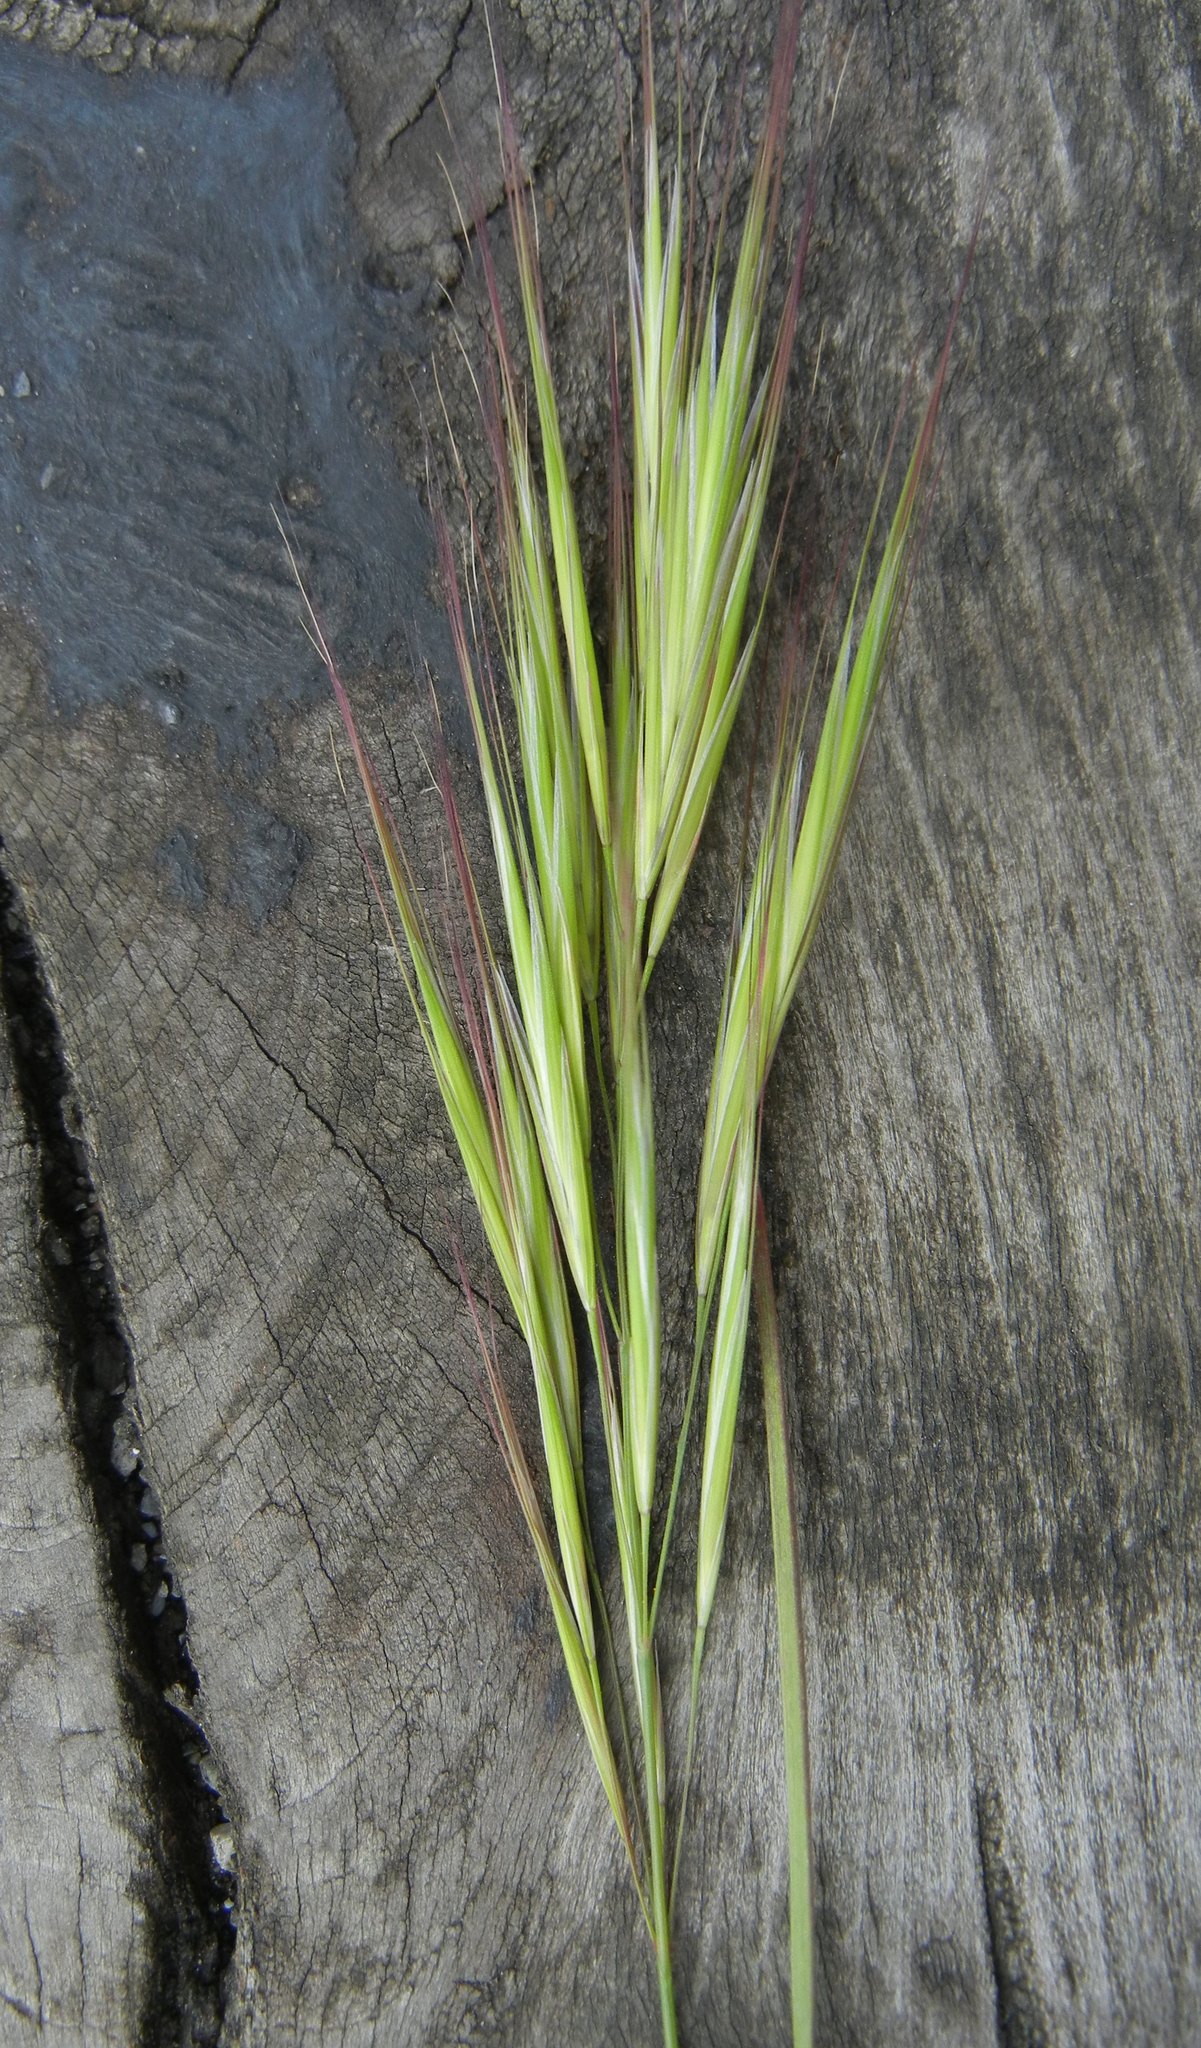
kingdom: Plantae
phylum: Tracheophyta
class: Liliopsida
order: Poales
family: Poaceae
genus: Bromus
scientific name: Bromus sterilis
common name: Poverty brome
